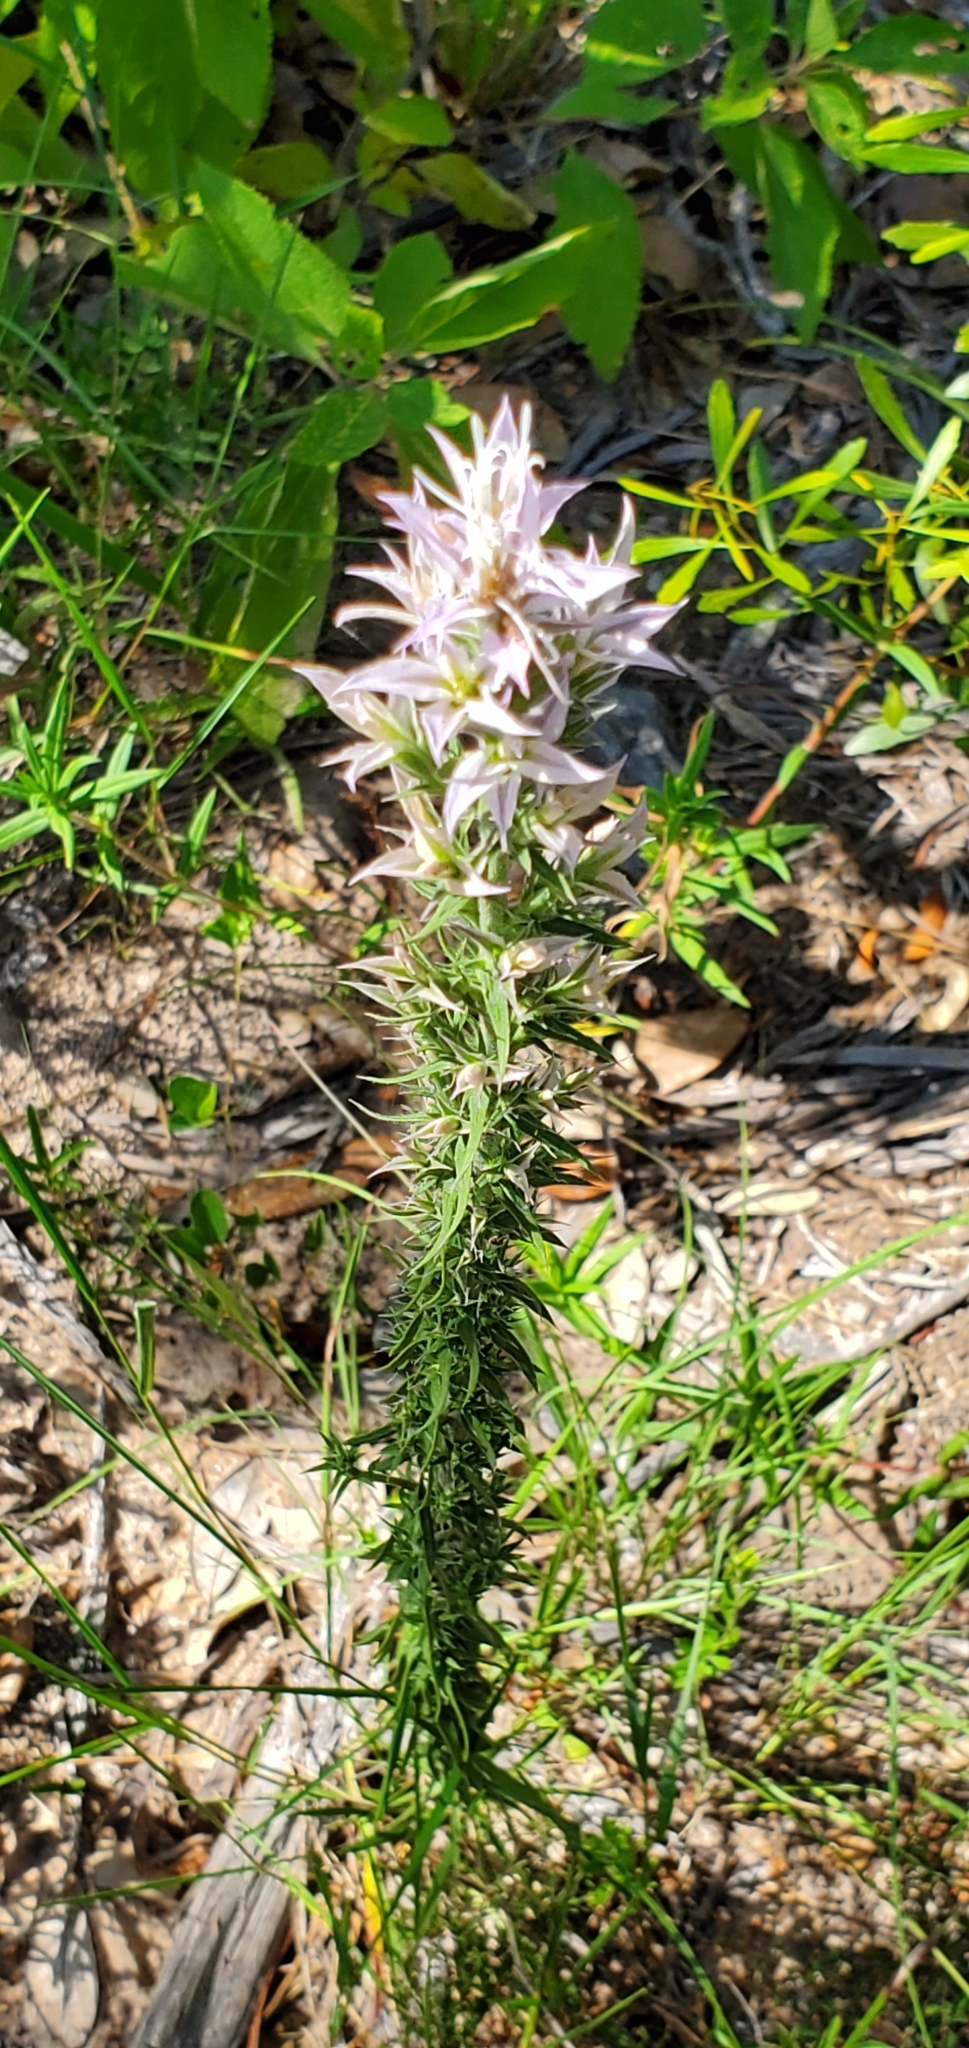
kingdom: Plantae
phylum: Tracheophyta
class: Magnoliopsida
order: Asterales
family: Asteraceae
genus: Liatris
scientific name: Liatris hesperelegans
